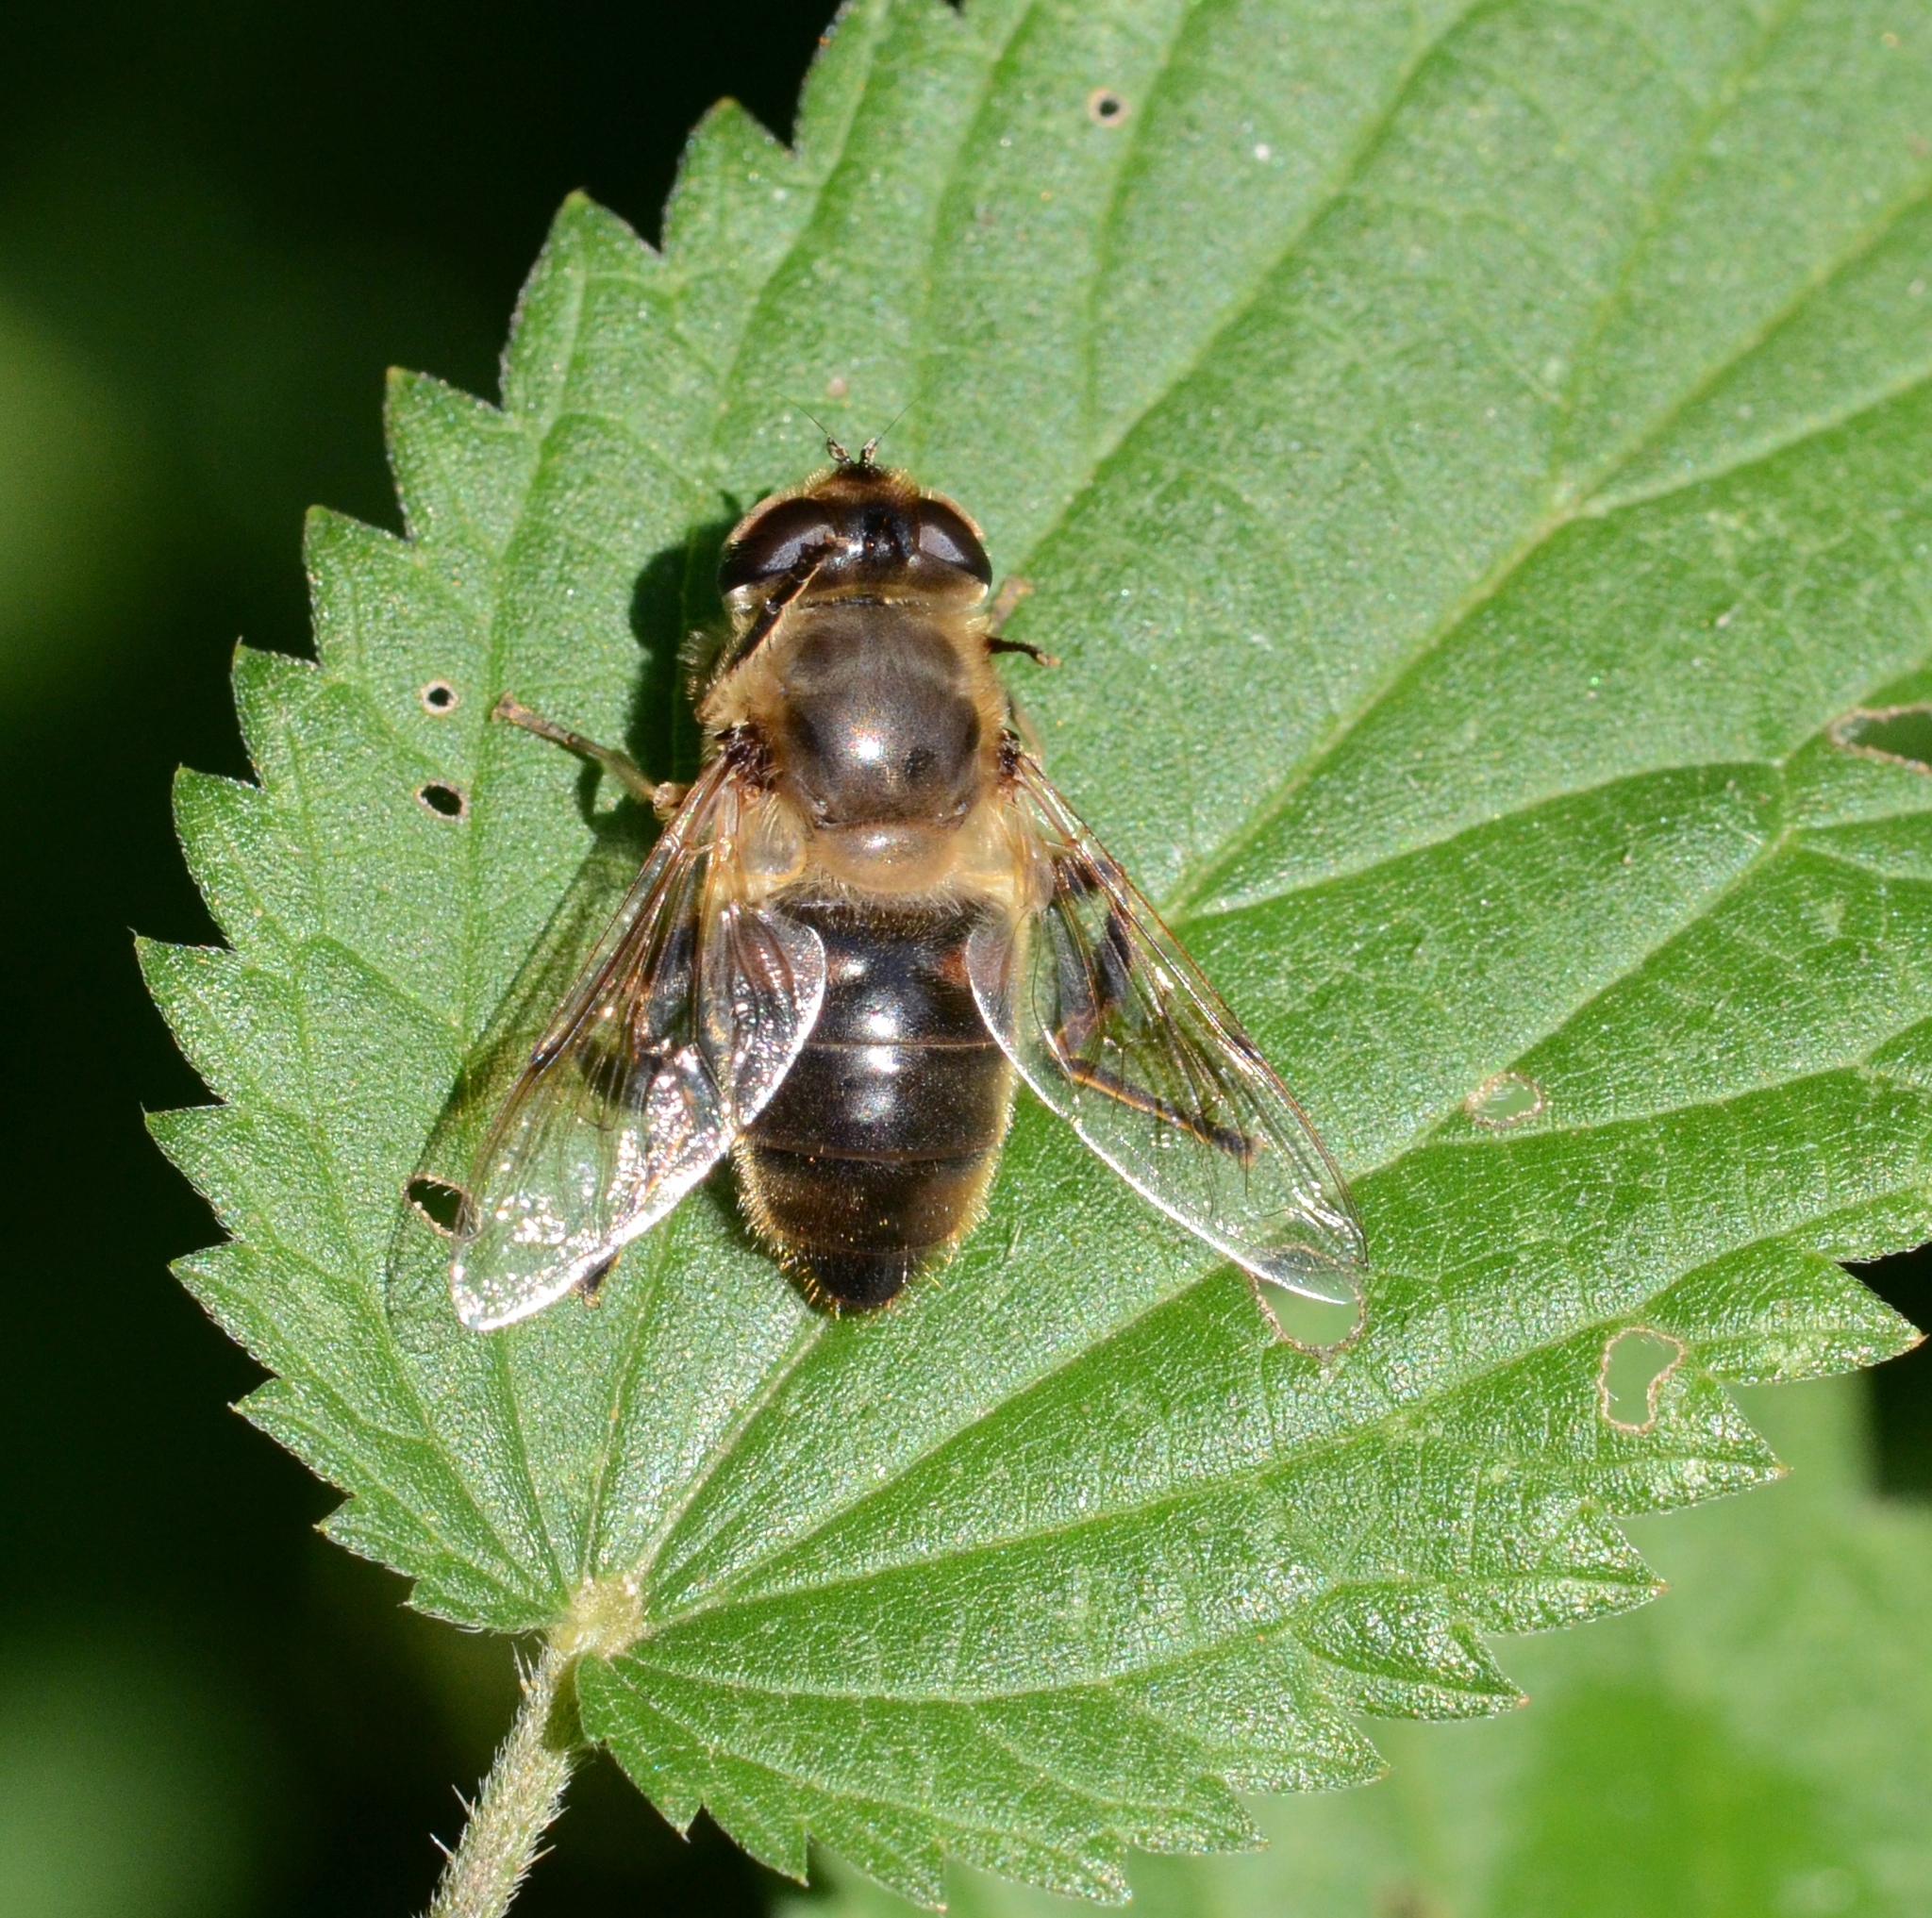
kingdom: Animalia
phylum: Arthropoda
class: Insecta
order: Diptera
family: Syrphidae
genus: Eristalis
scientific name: Eristalis tenax
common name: Drone fly
